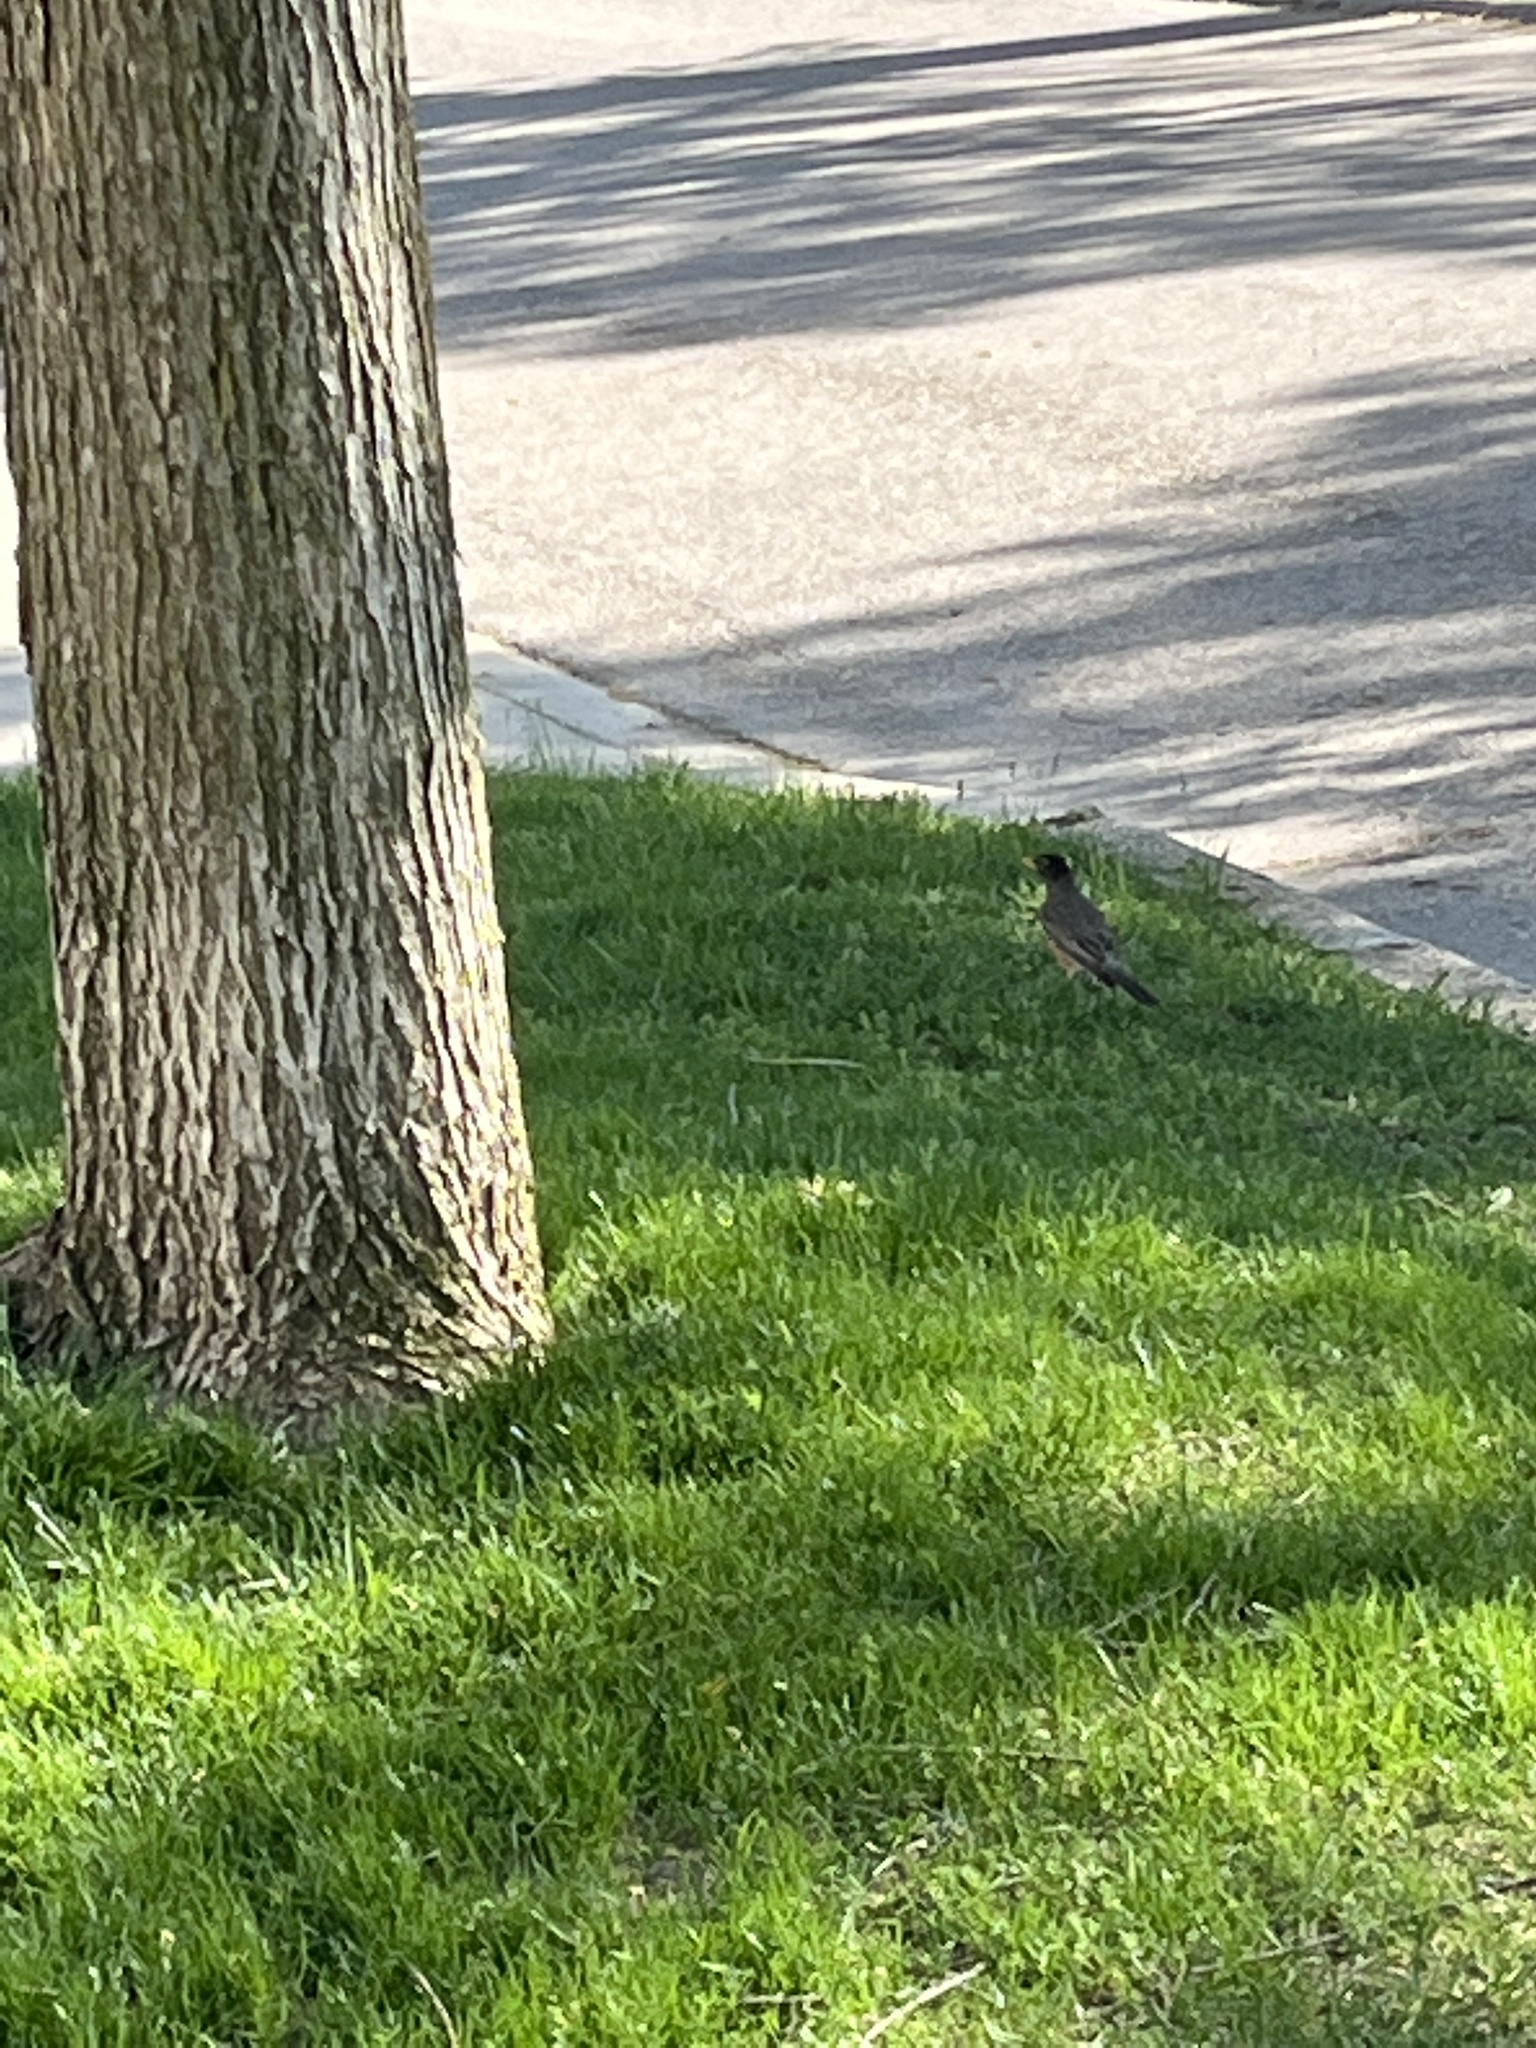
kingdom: Animalia
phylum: Chordata
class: Aves
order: Passeriformes
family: Turdidae
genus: Turdus
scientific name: Turdus migratorius
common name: American robin
